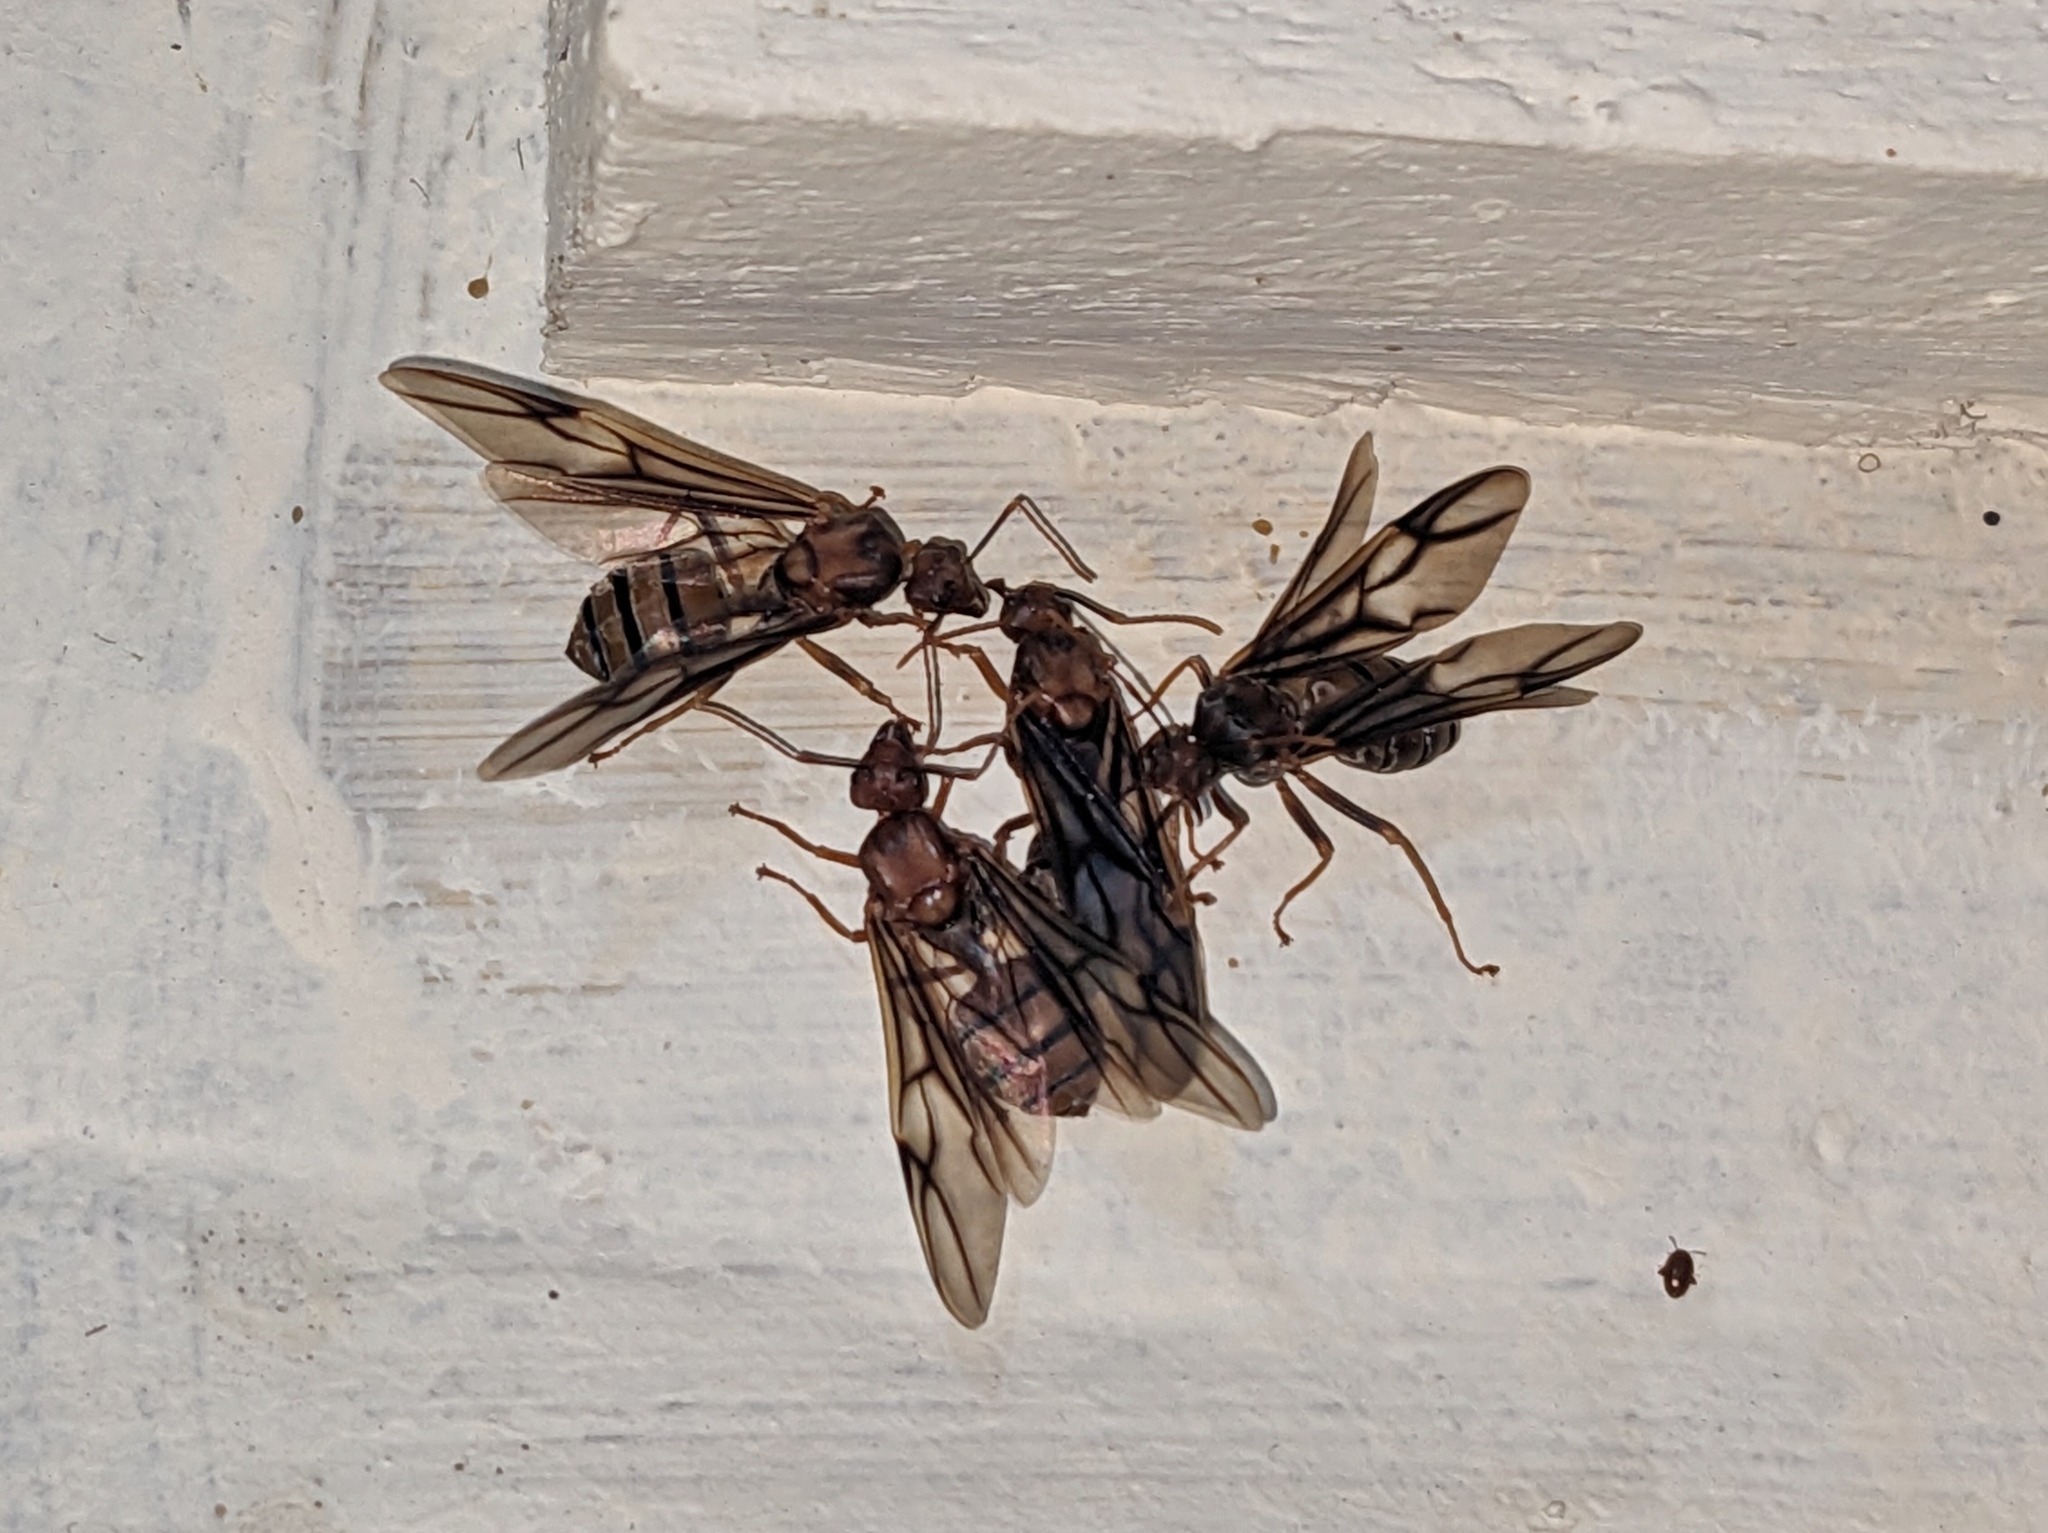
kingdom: Animalia
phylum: Arthropoda
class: Insecta
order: Hymenoptera
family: Formicidae
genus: Oecophylla
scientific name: Oecophylla longinoda
